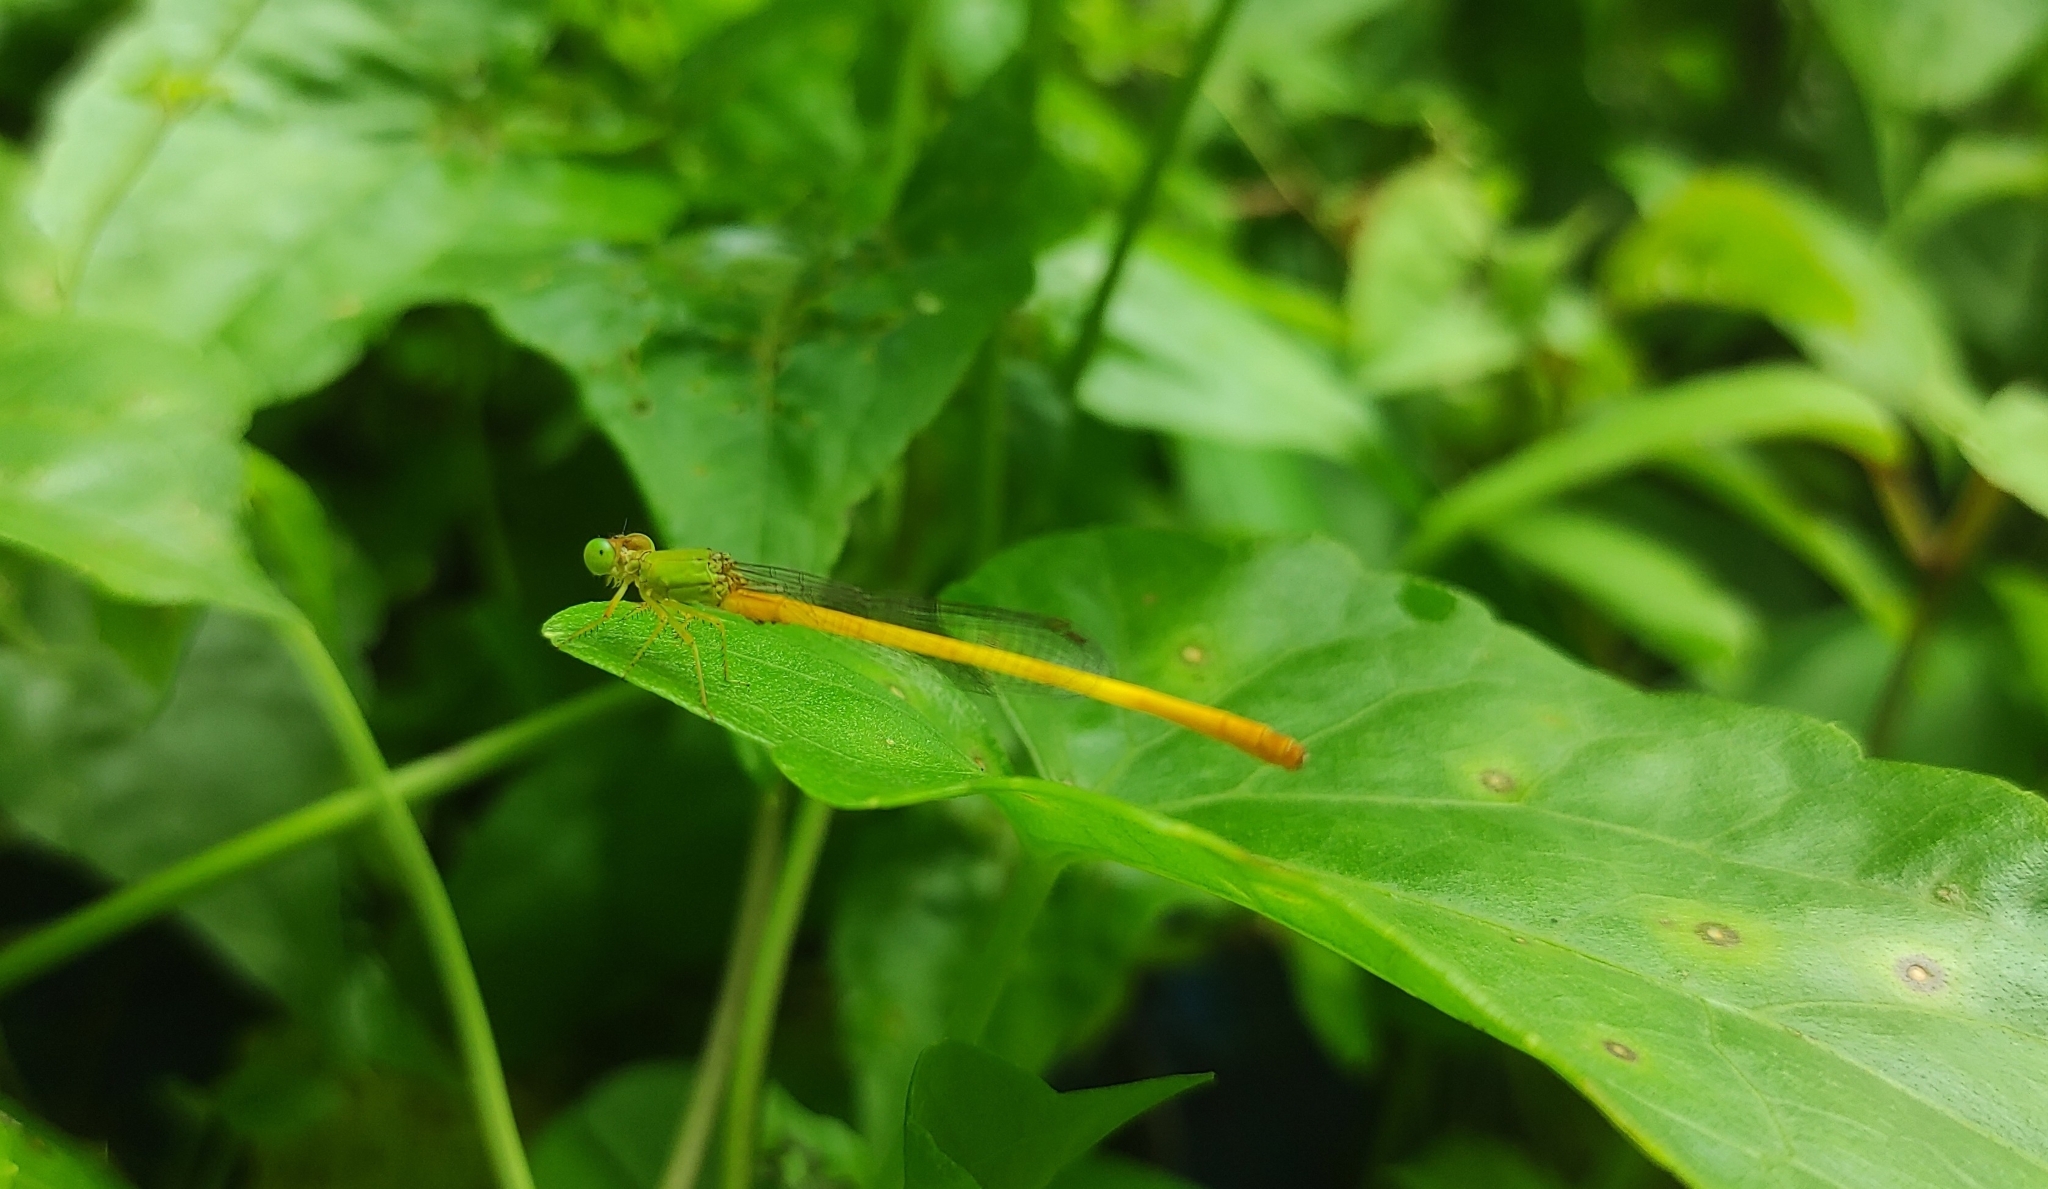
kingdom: Animalia
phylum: Arthropoda
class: Insecta
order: Odonata
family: Coenagrionidae
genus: Ceriagrion
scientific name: Ceriagrion coromandelianum
